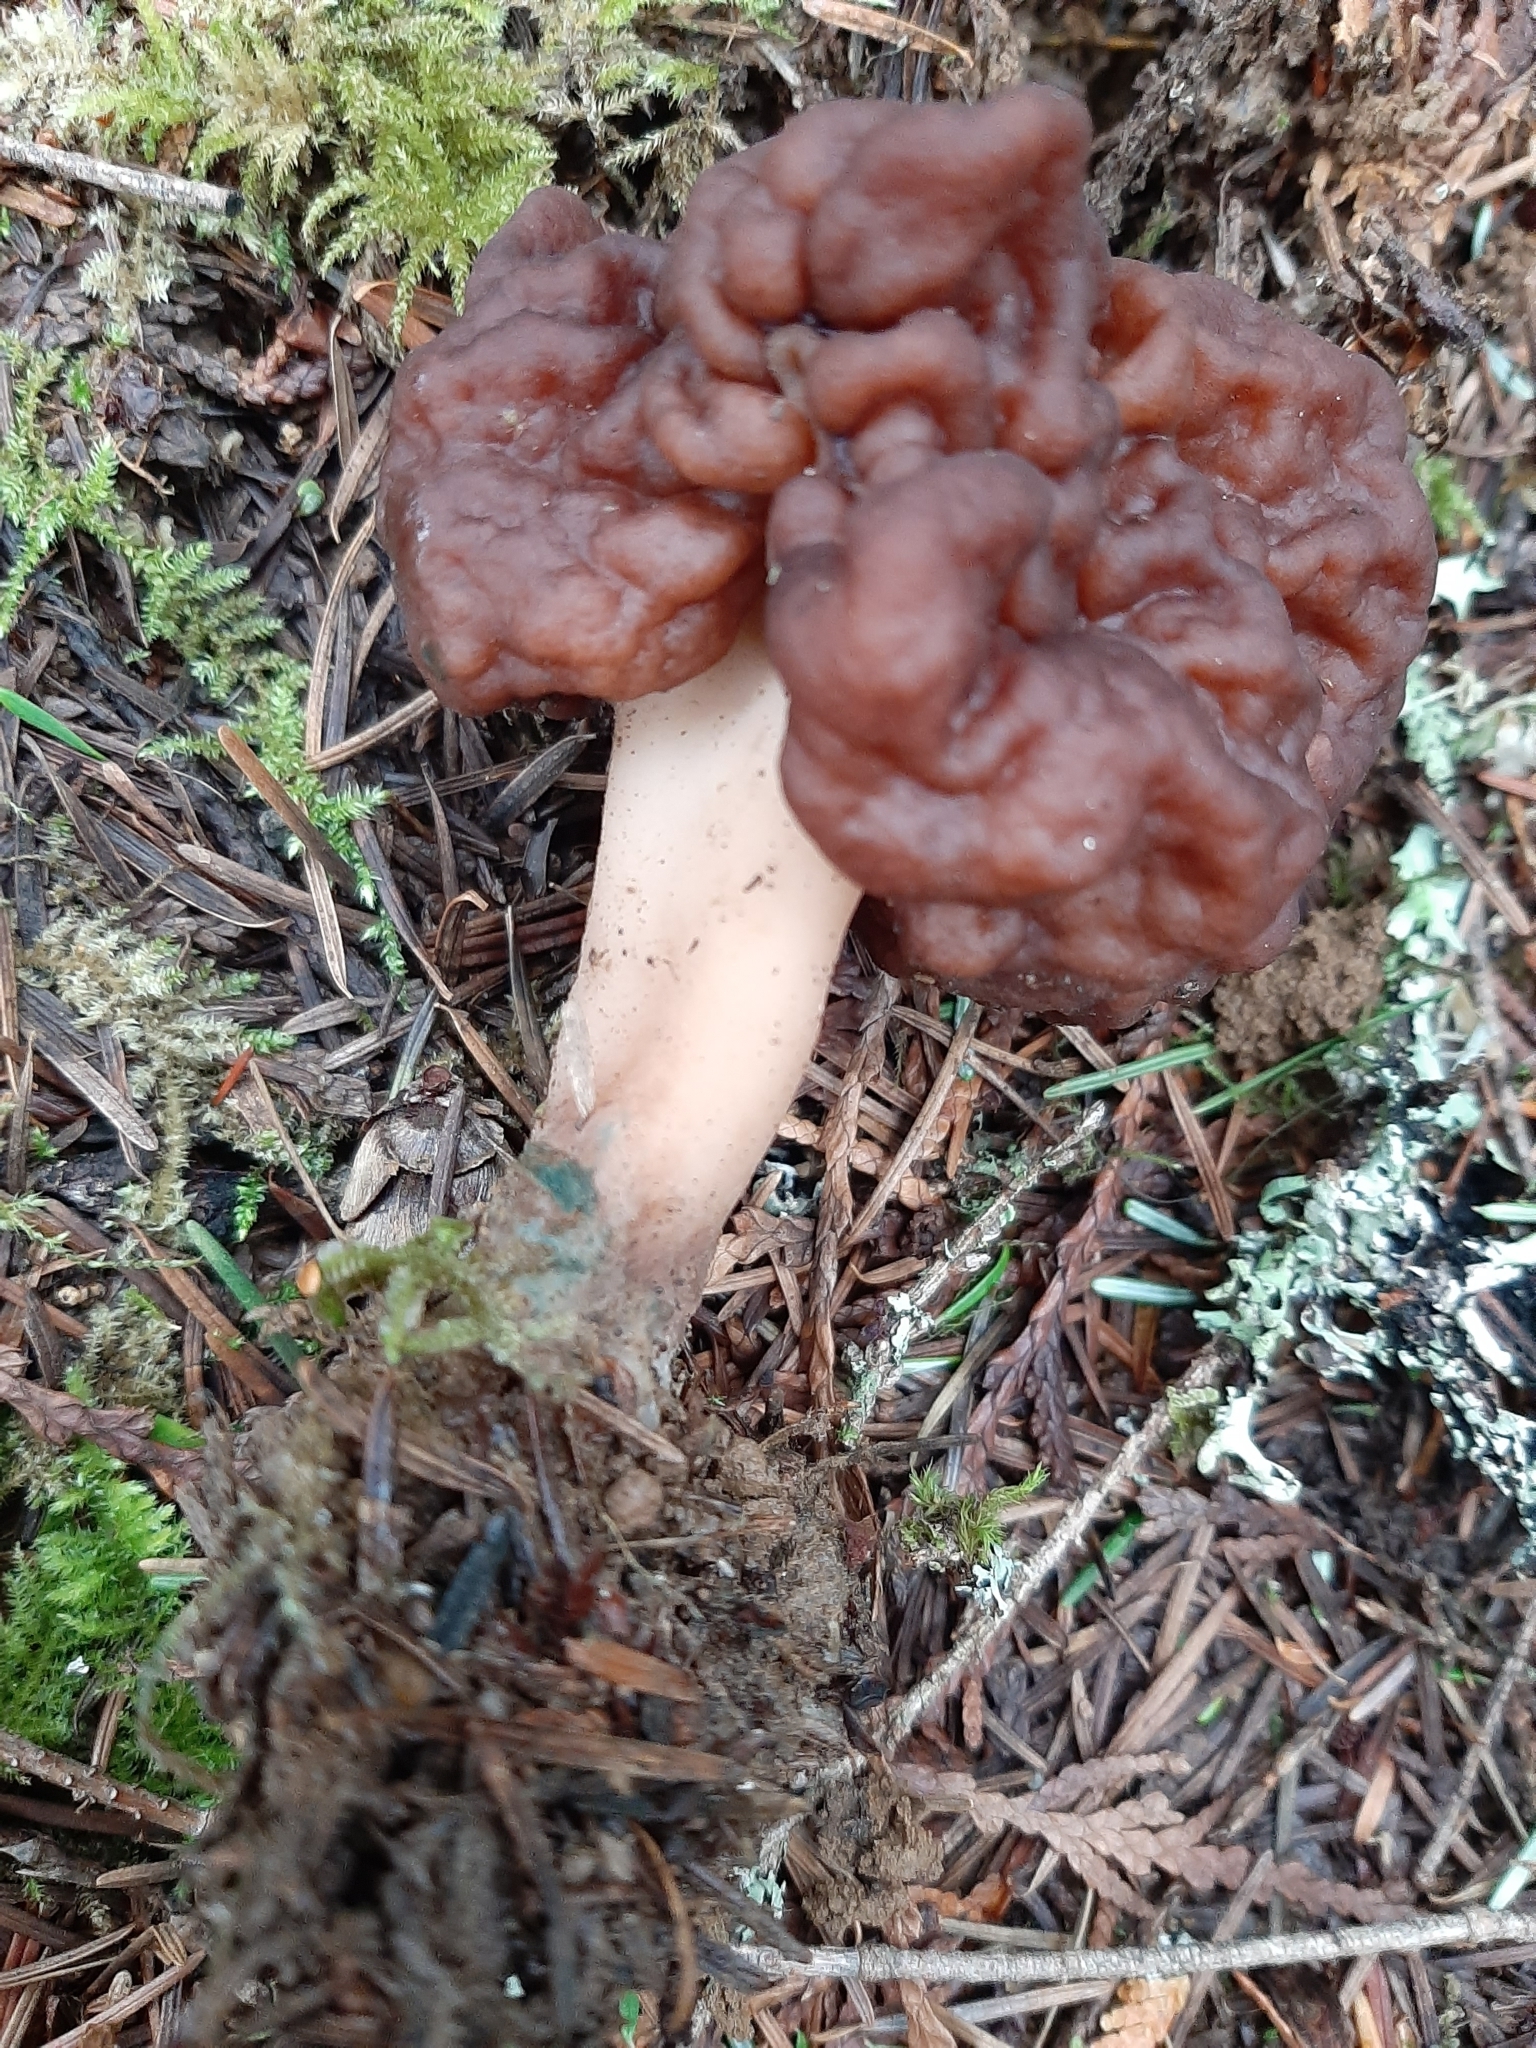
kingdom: Fungi
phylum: Ascomycota
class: Pezizomycetes
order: Pezizales
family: Discinaceae
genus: Gyromitra
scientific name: Gyromitra esculenta
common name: False morel
